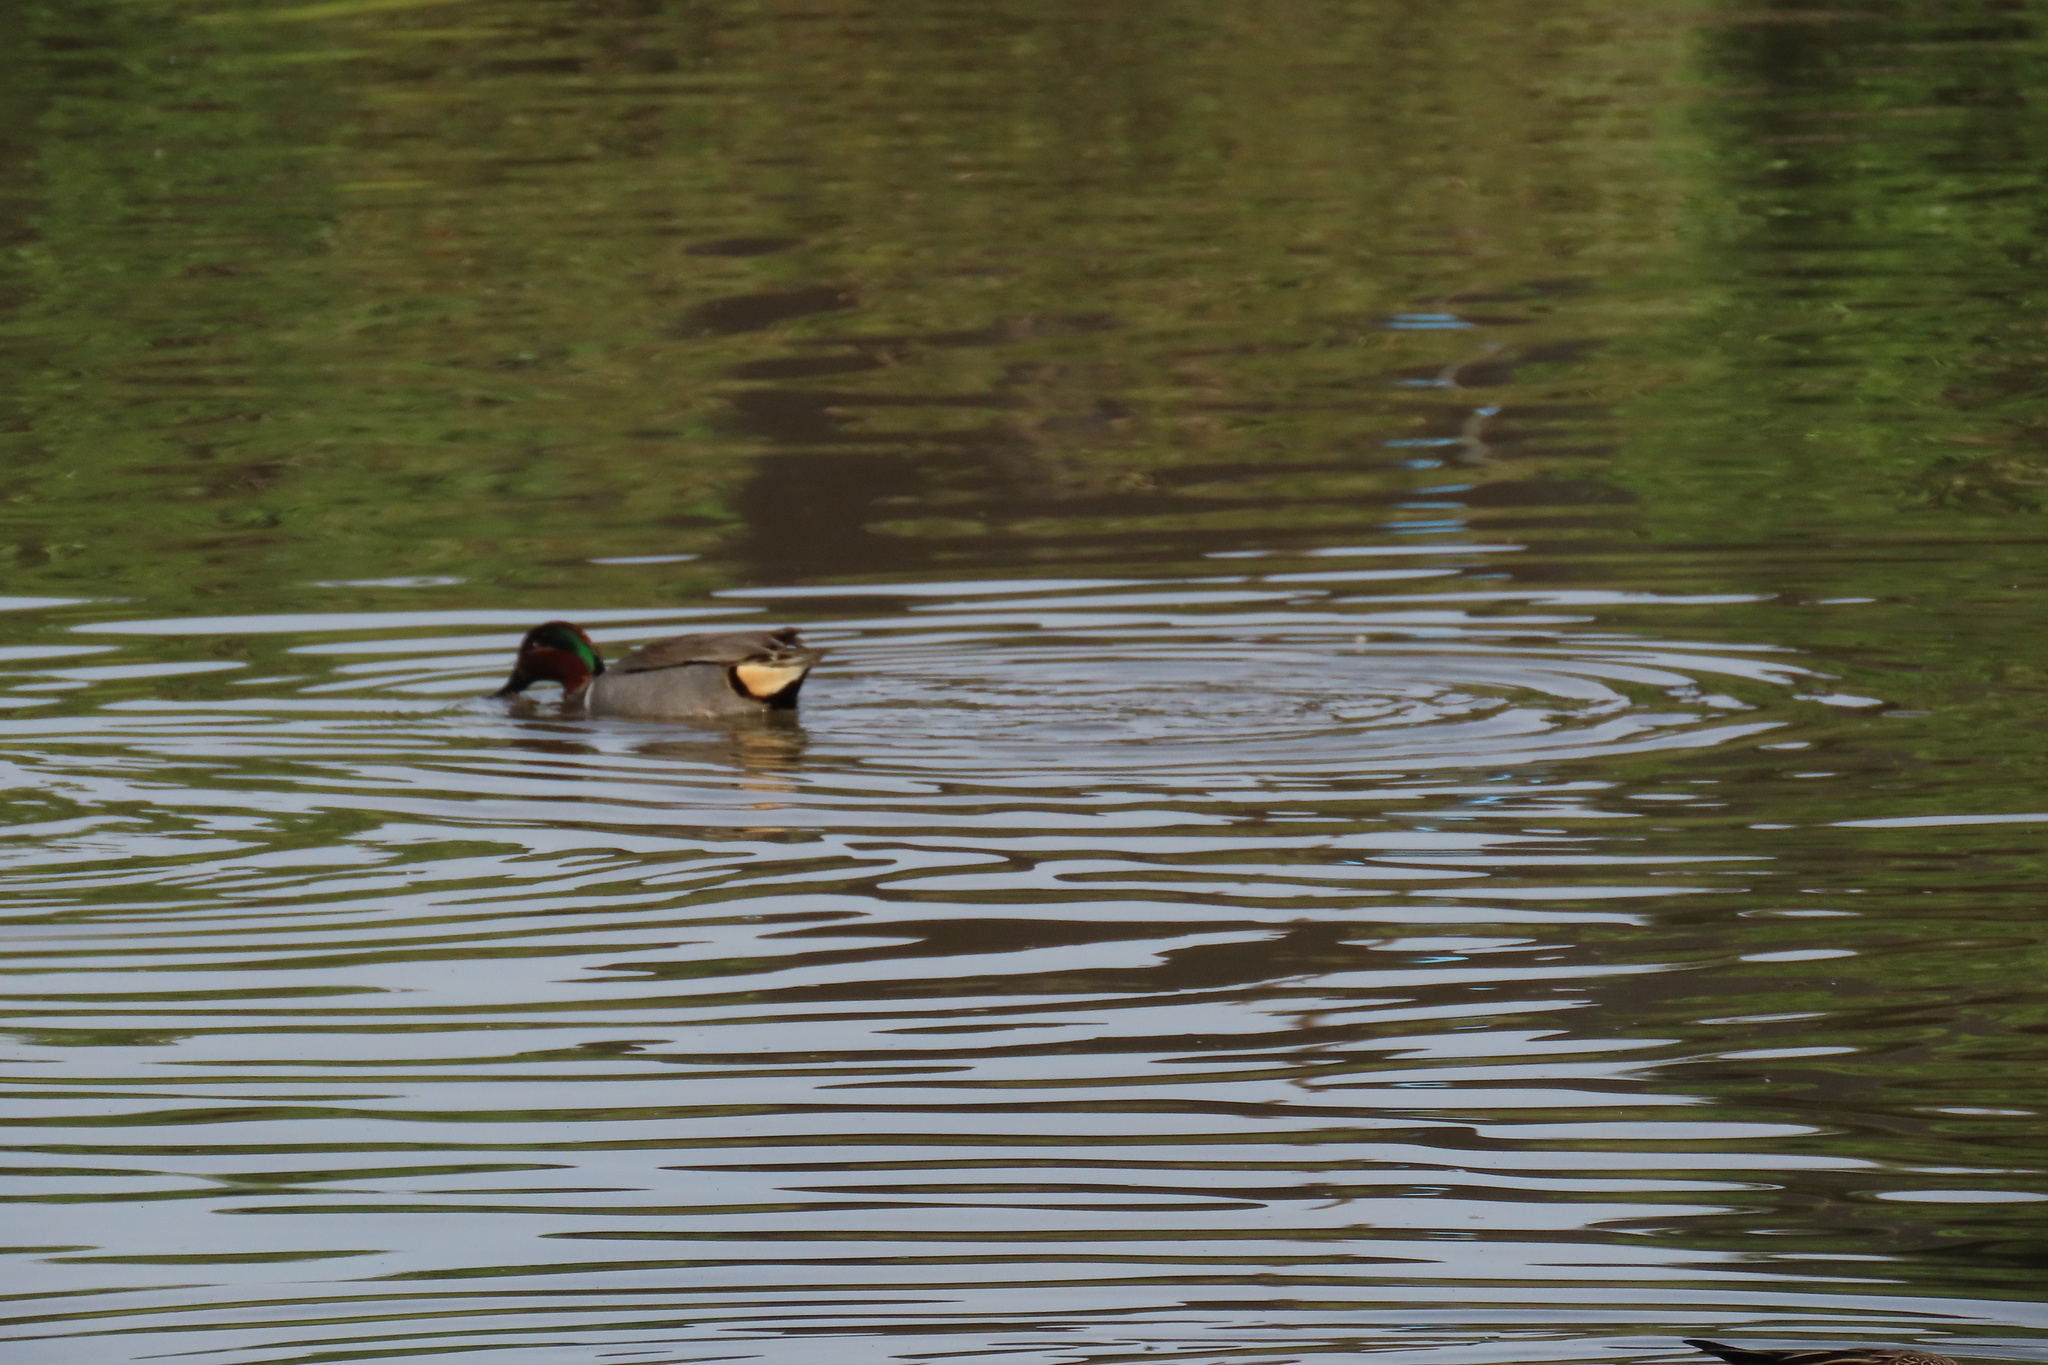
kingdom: Animalia
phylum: Chordata
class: Aves
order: Anseriformes
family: Anatidae
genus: Anas
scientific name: Anas crecca
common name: Eurasian teal
